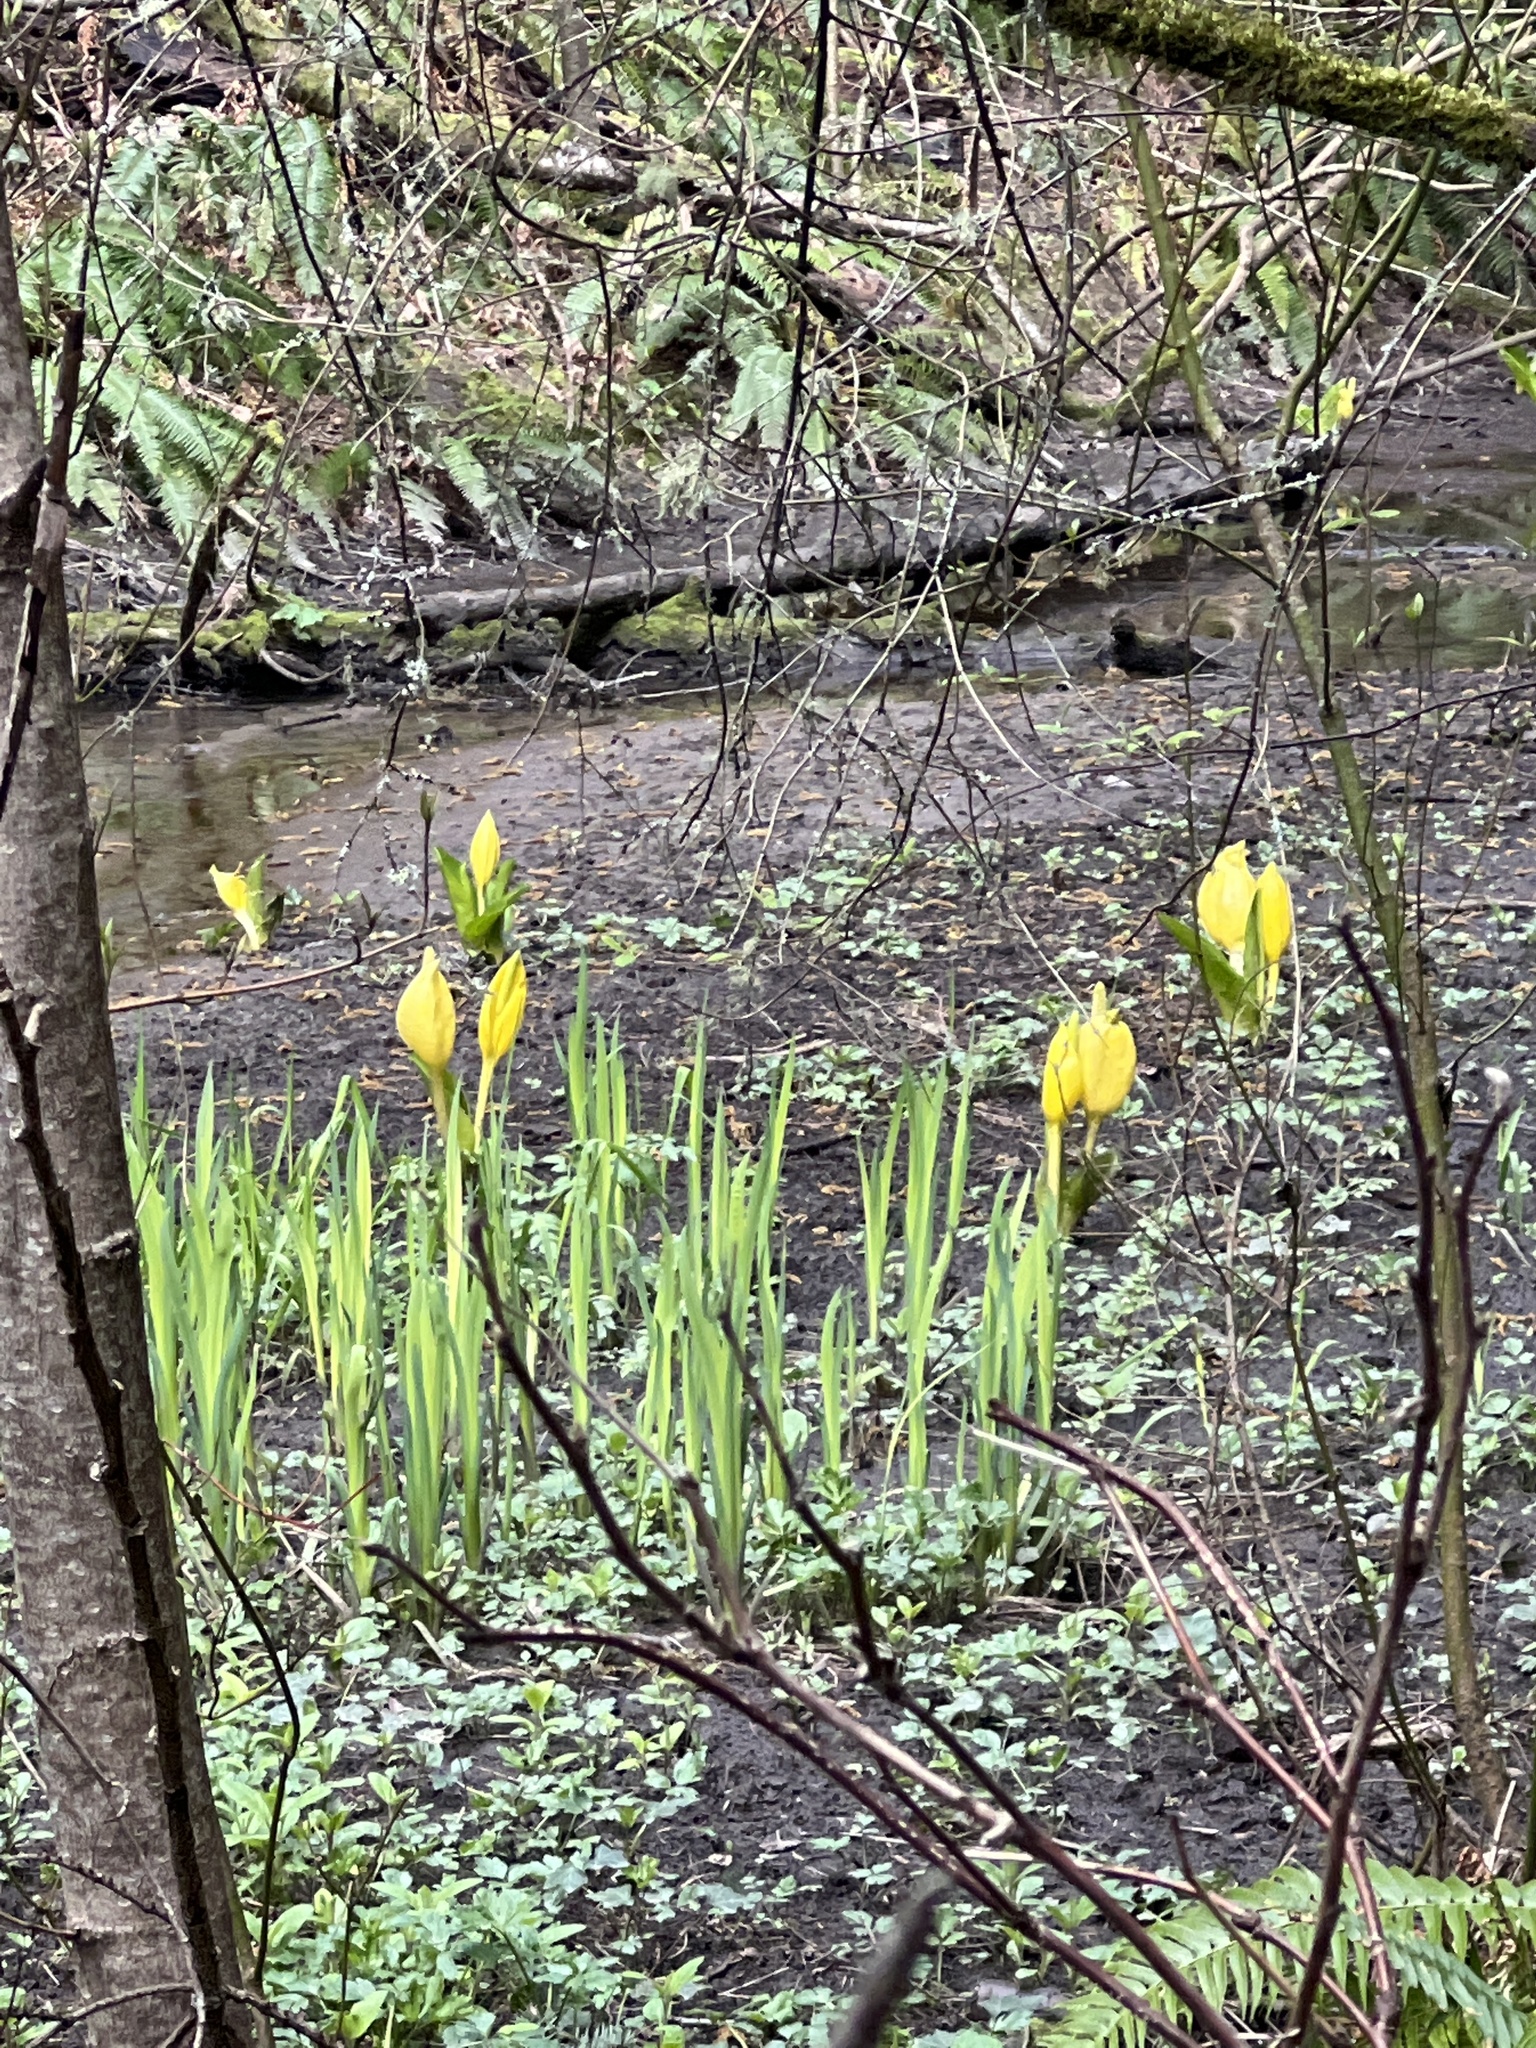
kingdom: Plantae
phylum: Tracheophyta
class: Liliopsida
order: Alismatales
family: Araceae
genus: Lysichiton
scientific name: Lysichiton americanus
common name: American skunk cabbage
